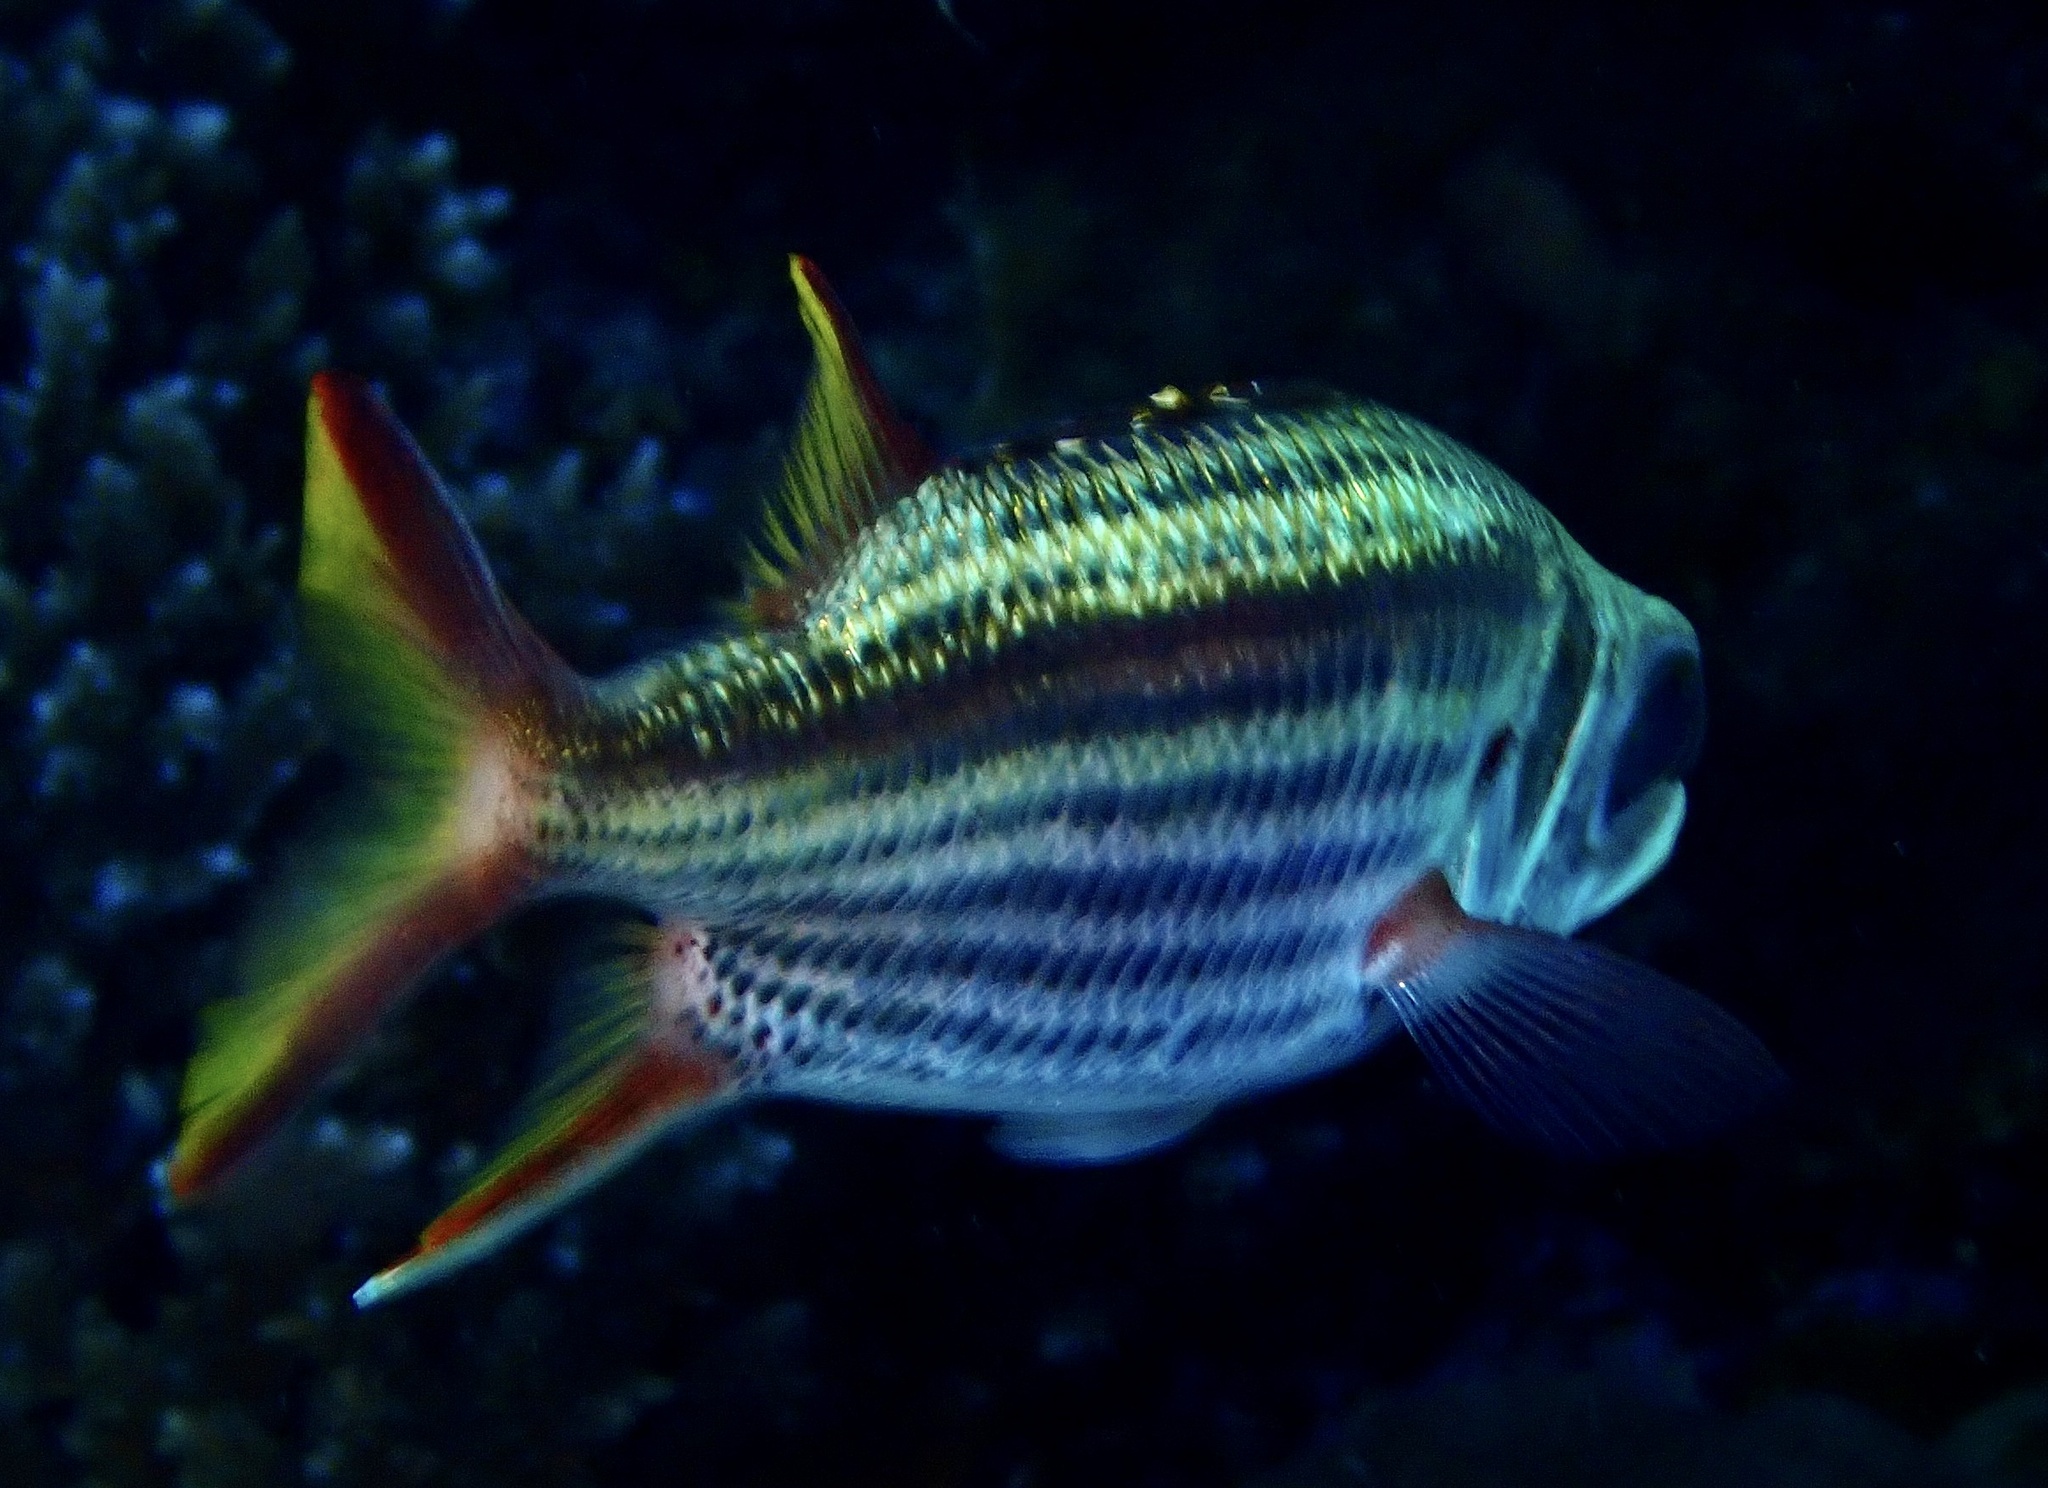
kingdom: Animalia
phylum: Chordata
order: Beryciformes
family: Holocentridae
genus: Neoniphon
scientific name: Neoniphon sammara
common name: Sammara squirrelfish
